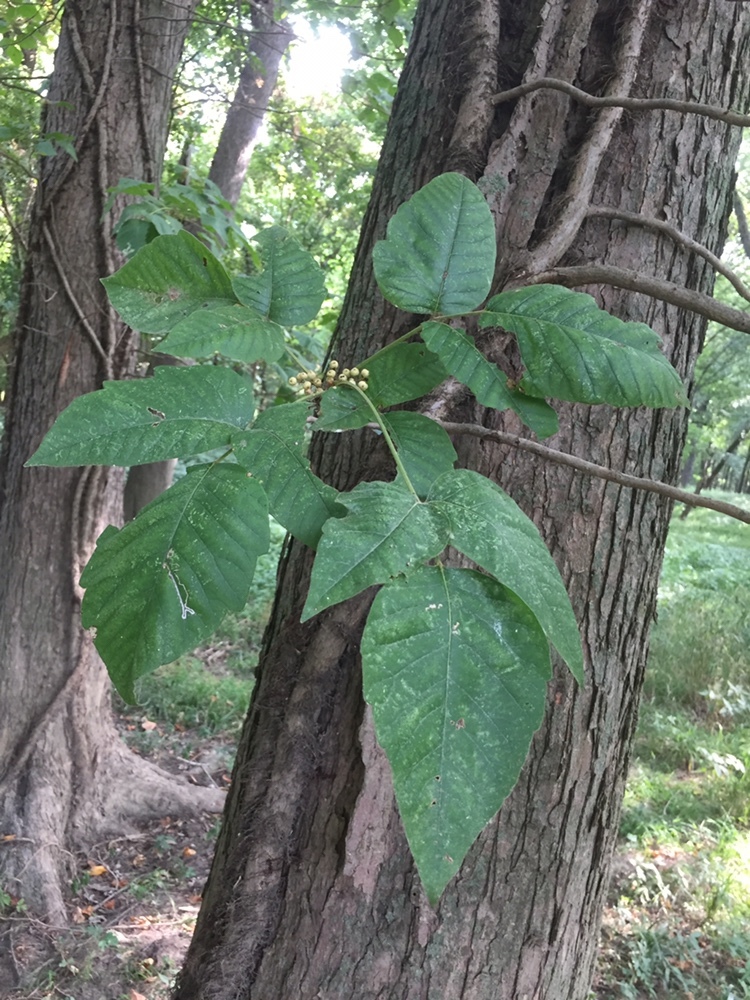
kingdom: Plantae
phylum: Tracheophyta
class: Magnoliopsida
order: Sapindales
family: Anacardiaceae
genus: Toxicodendron
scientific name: Toxicodendron radicans
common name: Poison ivy
